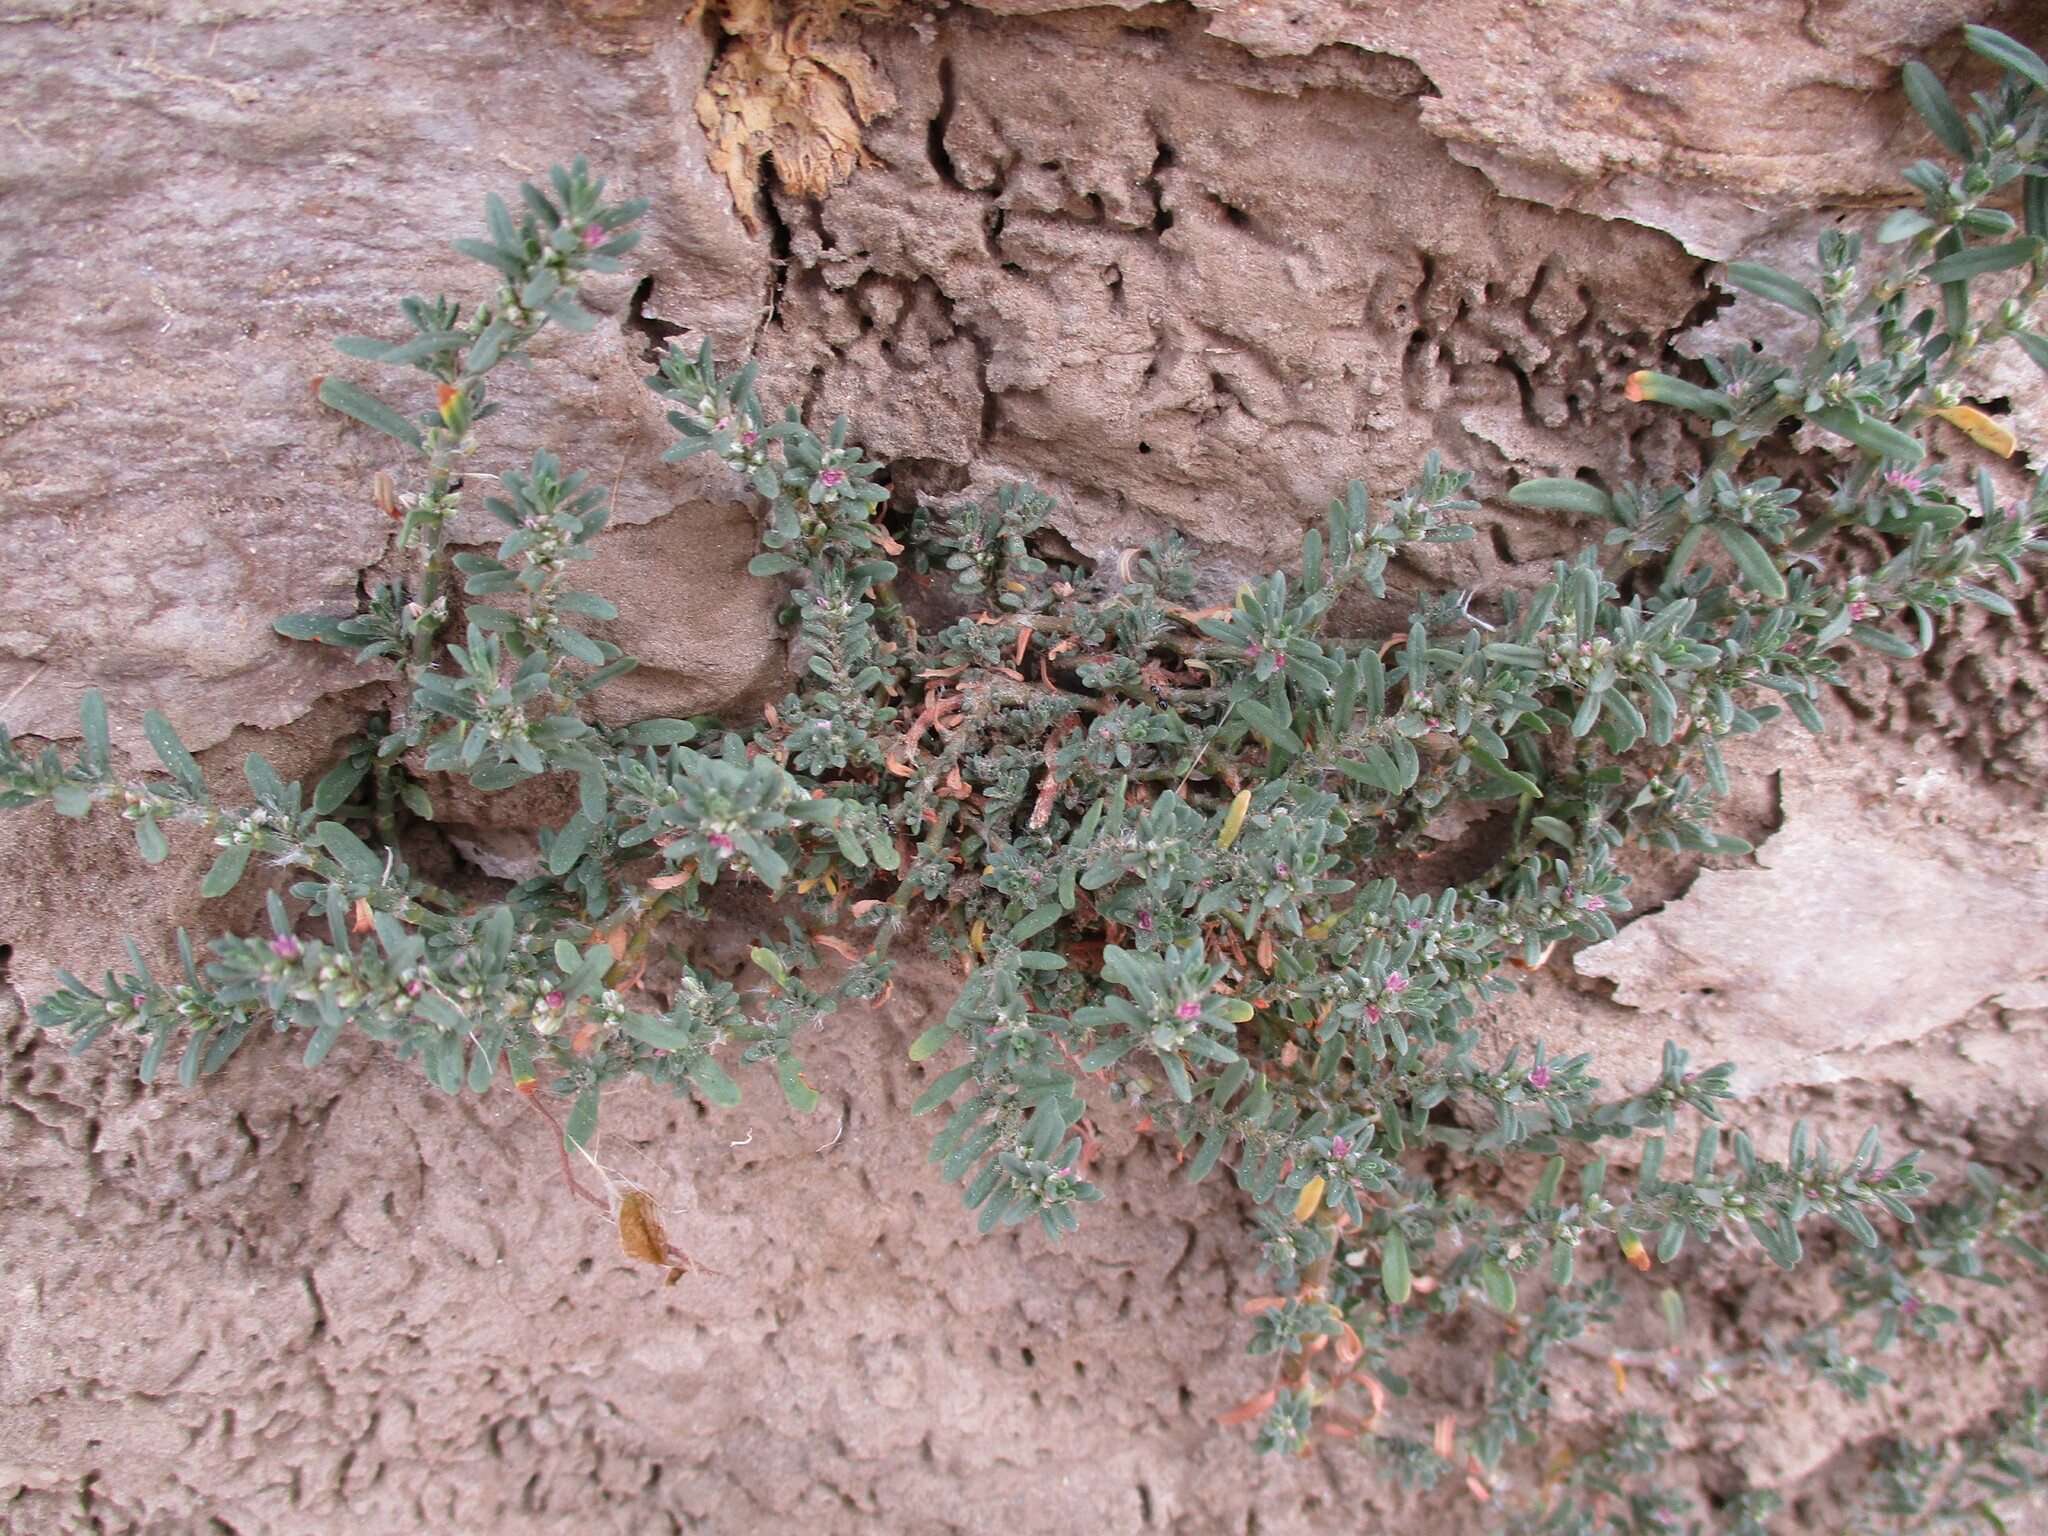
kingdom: Plantae
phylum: Tracheophyta
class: Magnoliopsida
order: Caryophyllales
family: Polygonaceae
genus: Polygonum
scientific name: Polygonum plebeium
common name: Common knotweed
